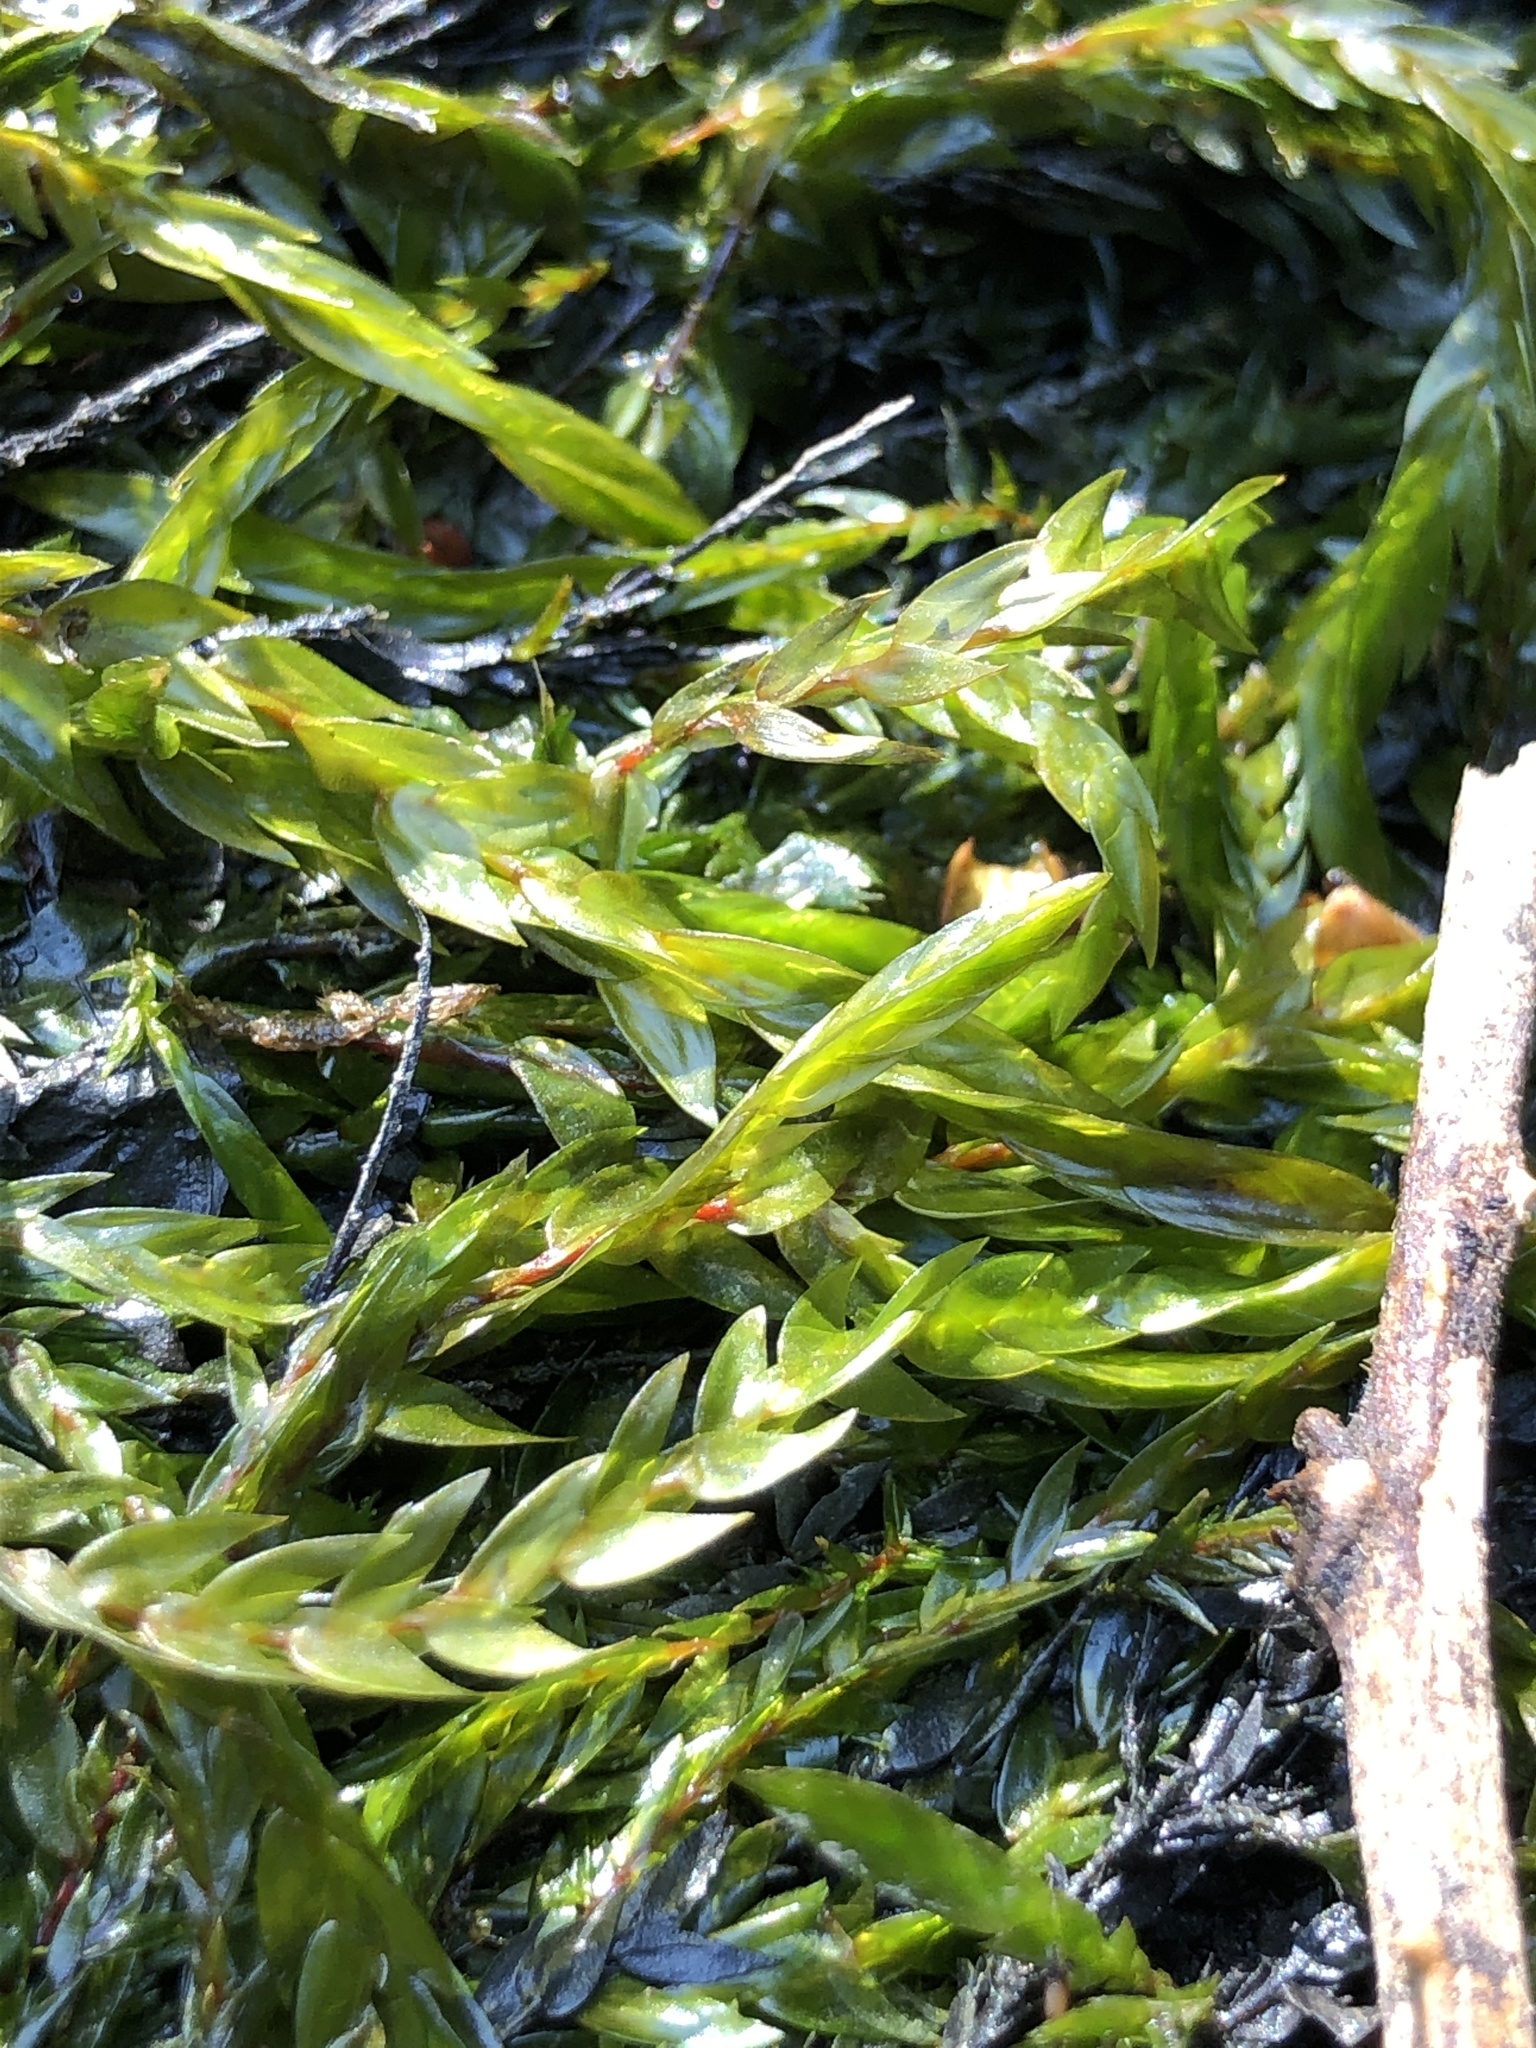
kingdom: Plantae
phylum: Bryophyta
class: Bryopsida
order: Hypnales
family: Fontinalaceae
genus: Fontinalis
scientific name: Fontinalis antipyretica
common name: Greater water-moss
